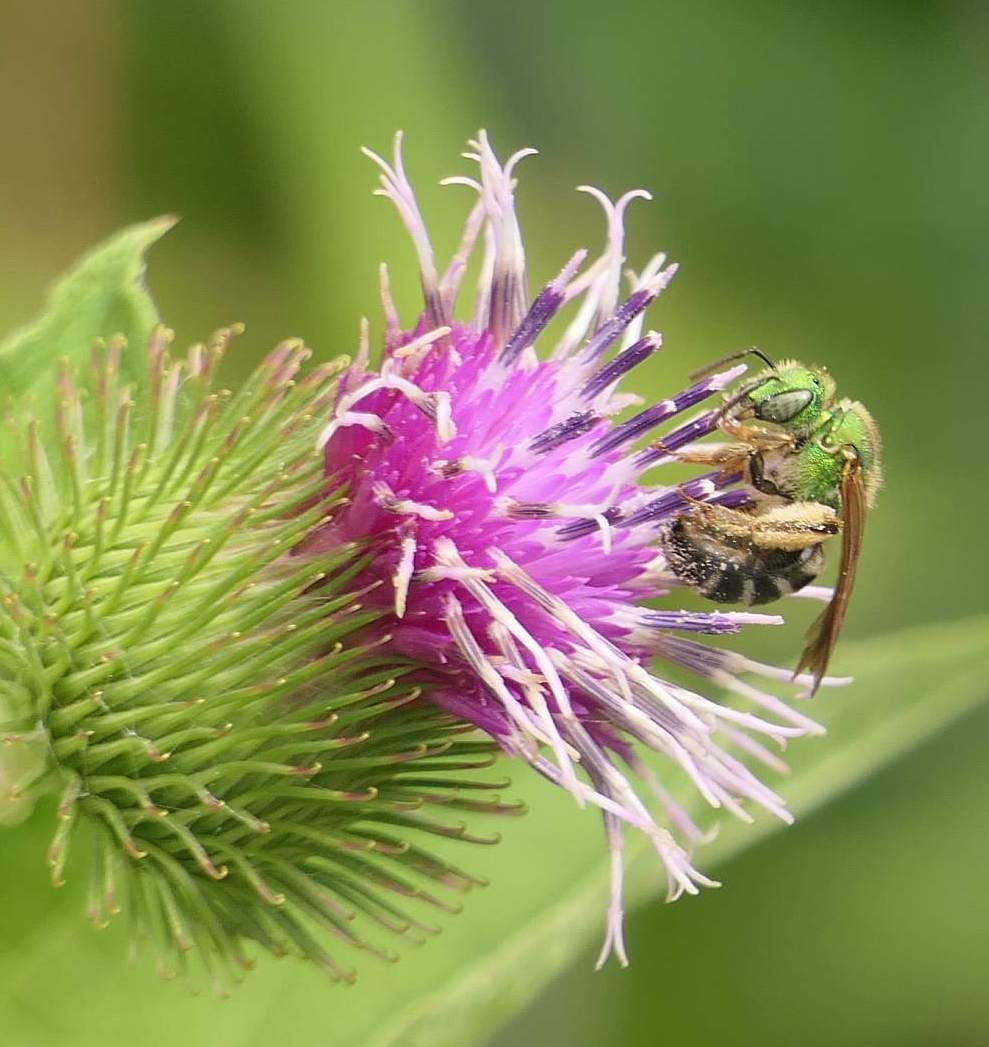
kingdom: Animalia
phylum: Arthropoda
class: Insecta
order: Hymenoptera
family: Halictidae
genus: Agapostemon
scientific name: Agapostemon virescens
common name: Bicolored striped sweat bee
